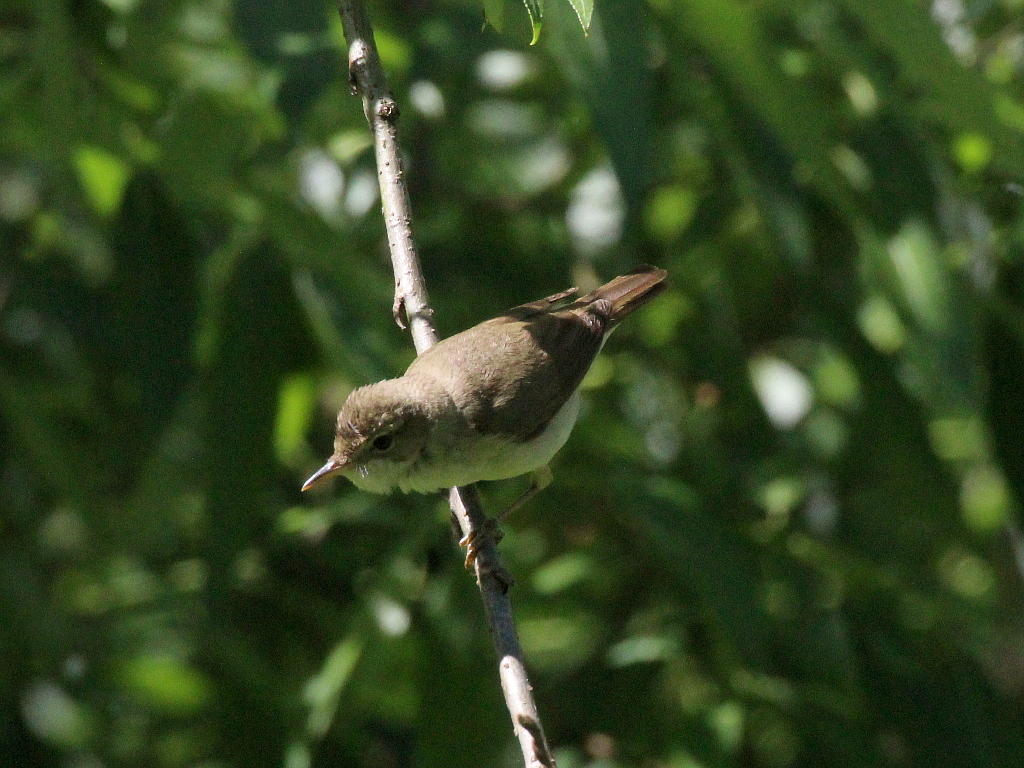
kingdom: Animalia
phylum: Chordata
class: Aves
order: Passeriformes
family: Acrocephalidae
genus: Acrocephalus
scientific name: Acrocephalus dumetorum
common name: Blyth's reed warbler
